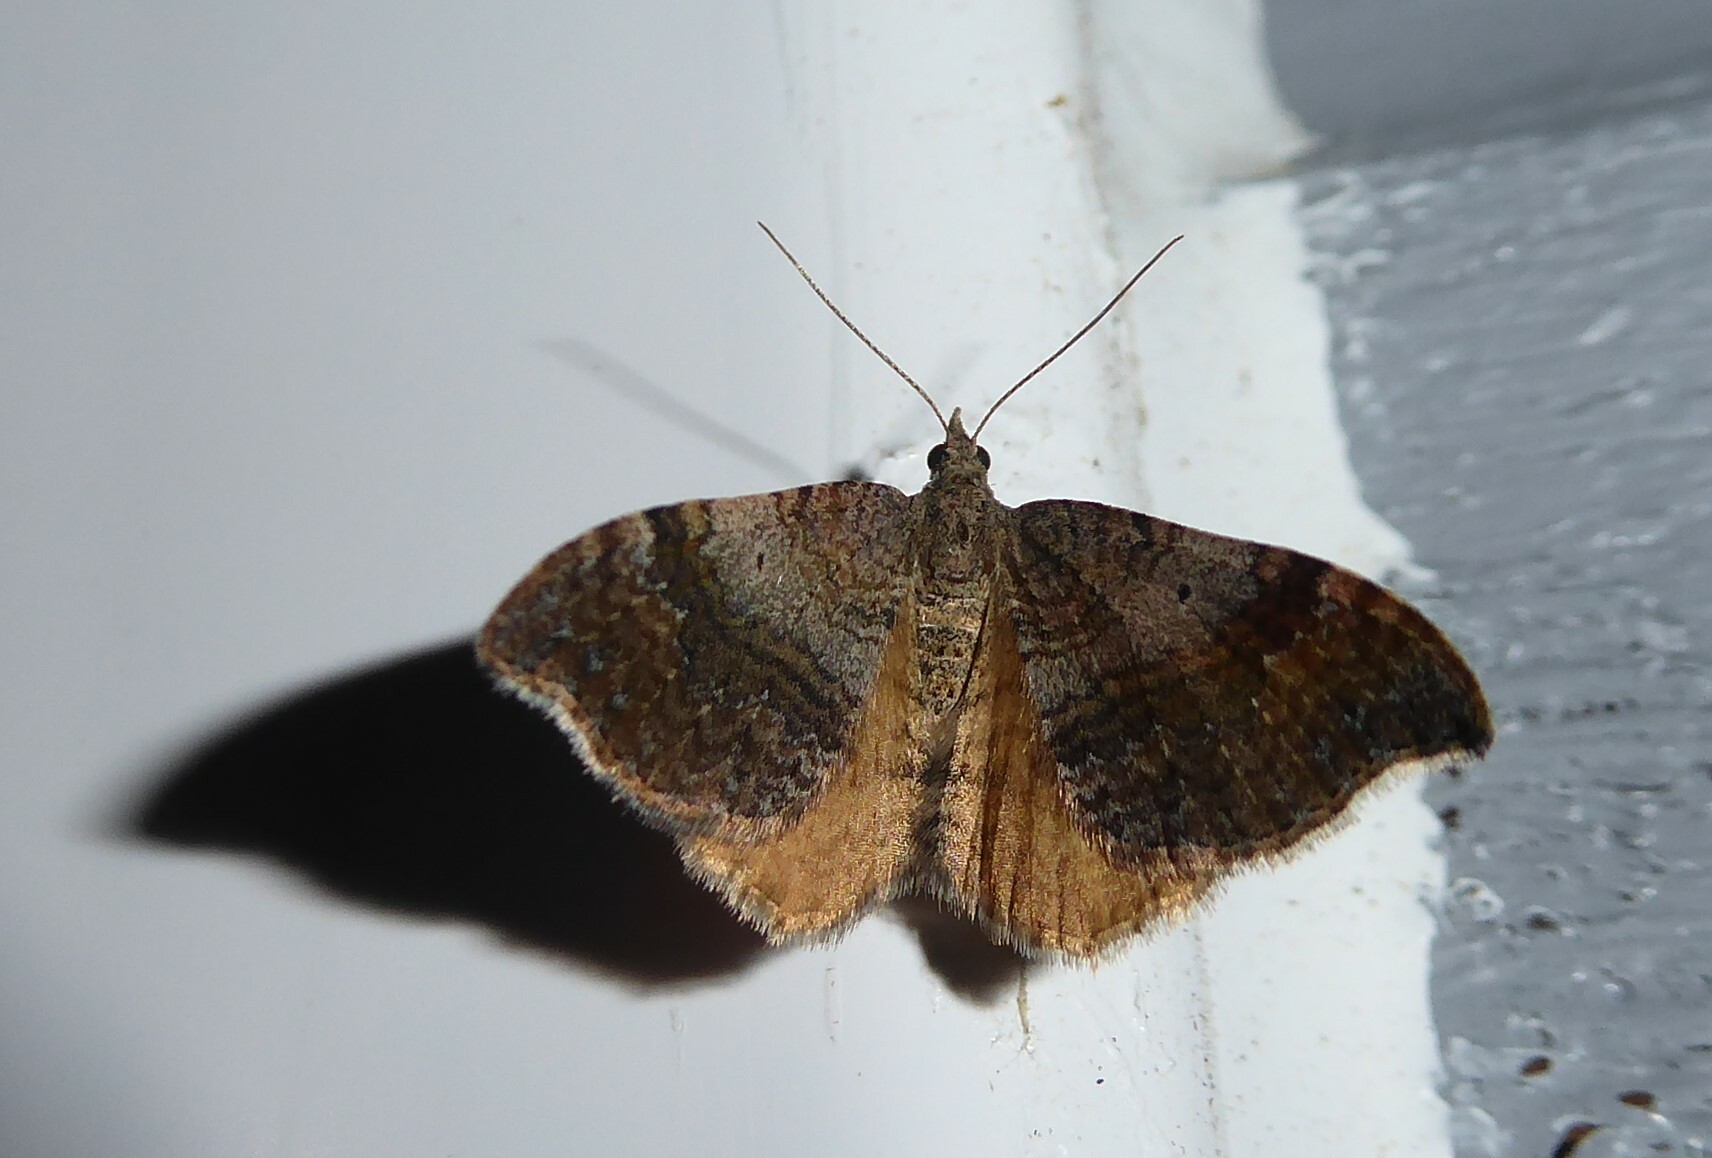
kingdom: Animalia
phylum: Arthropoda
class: Insecta
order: Lepidoptera
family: Geometridae
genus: Homodotis
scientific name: Homodotis megaspilata
